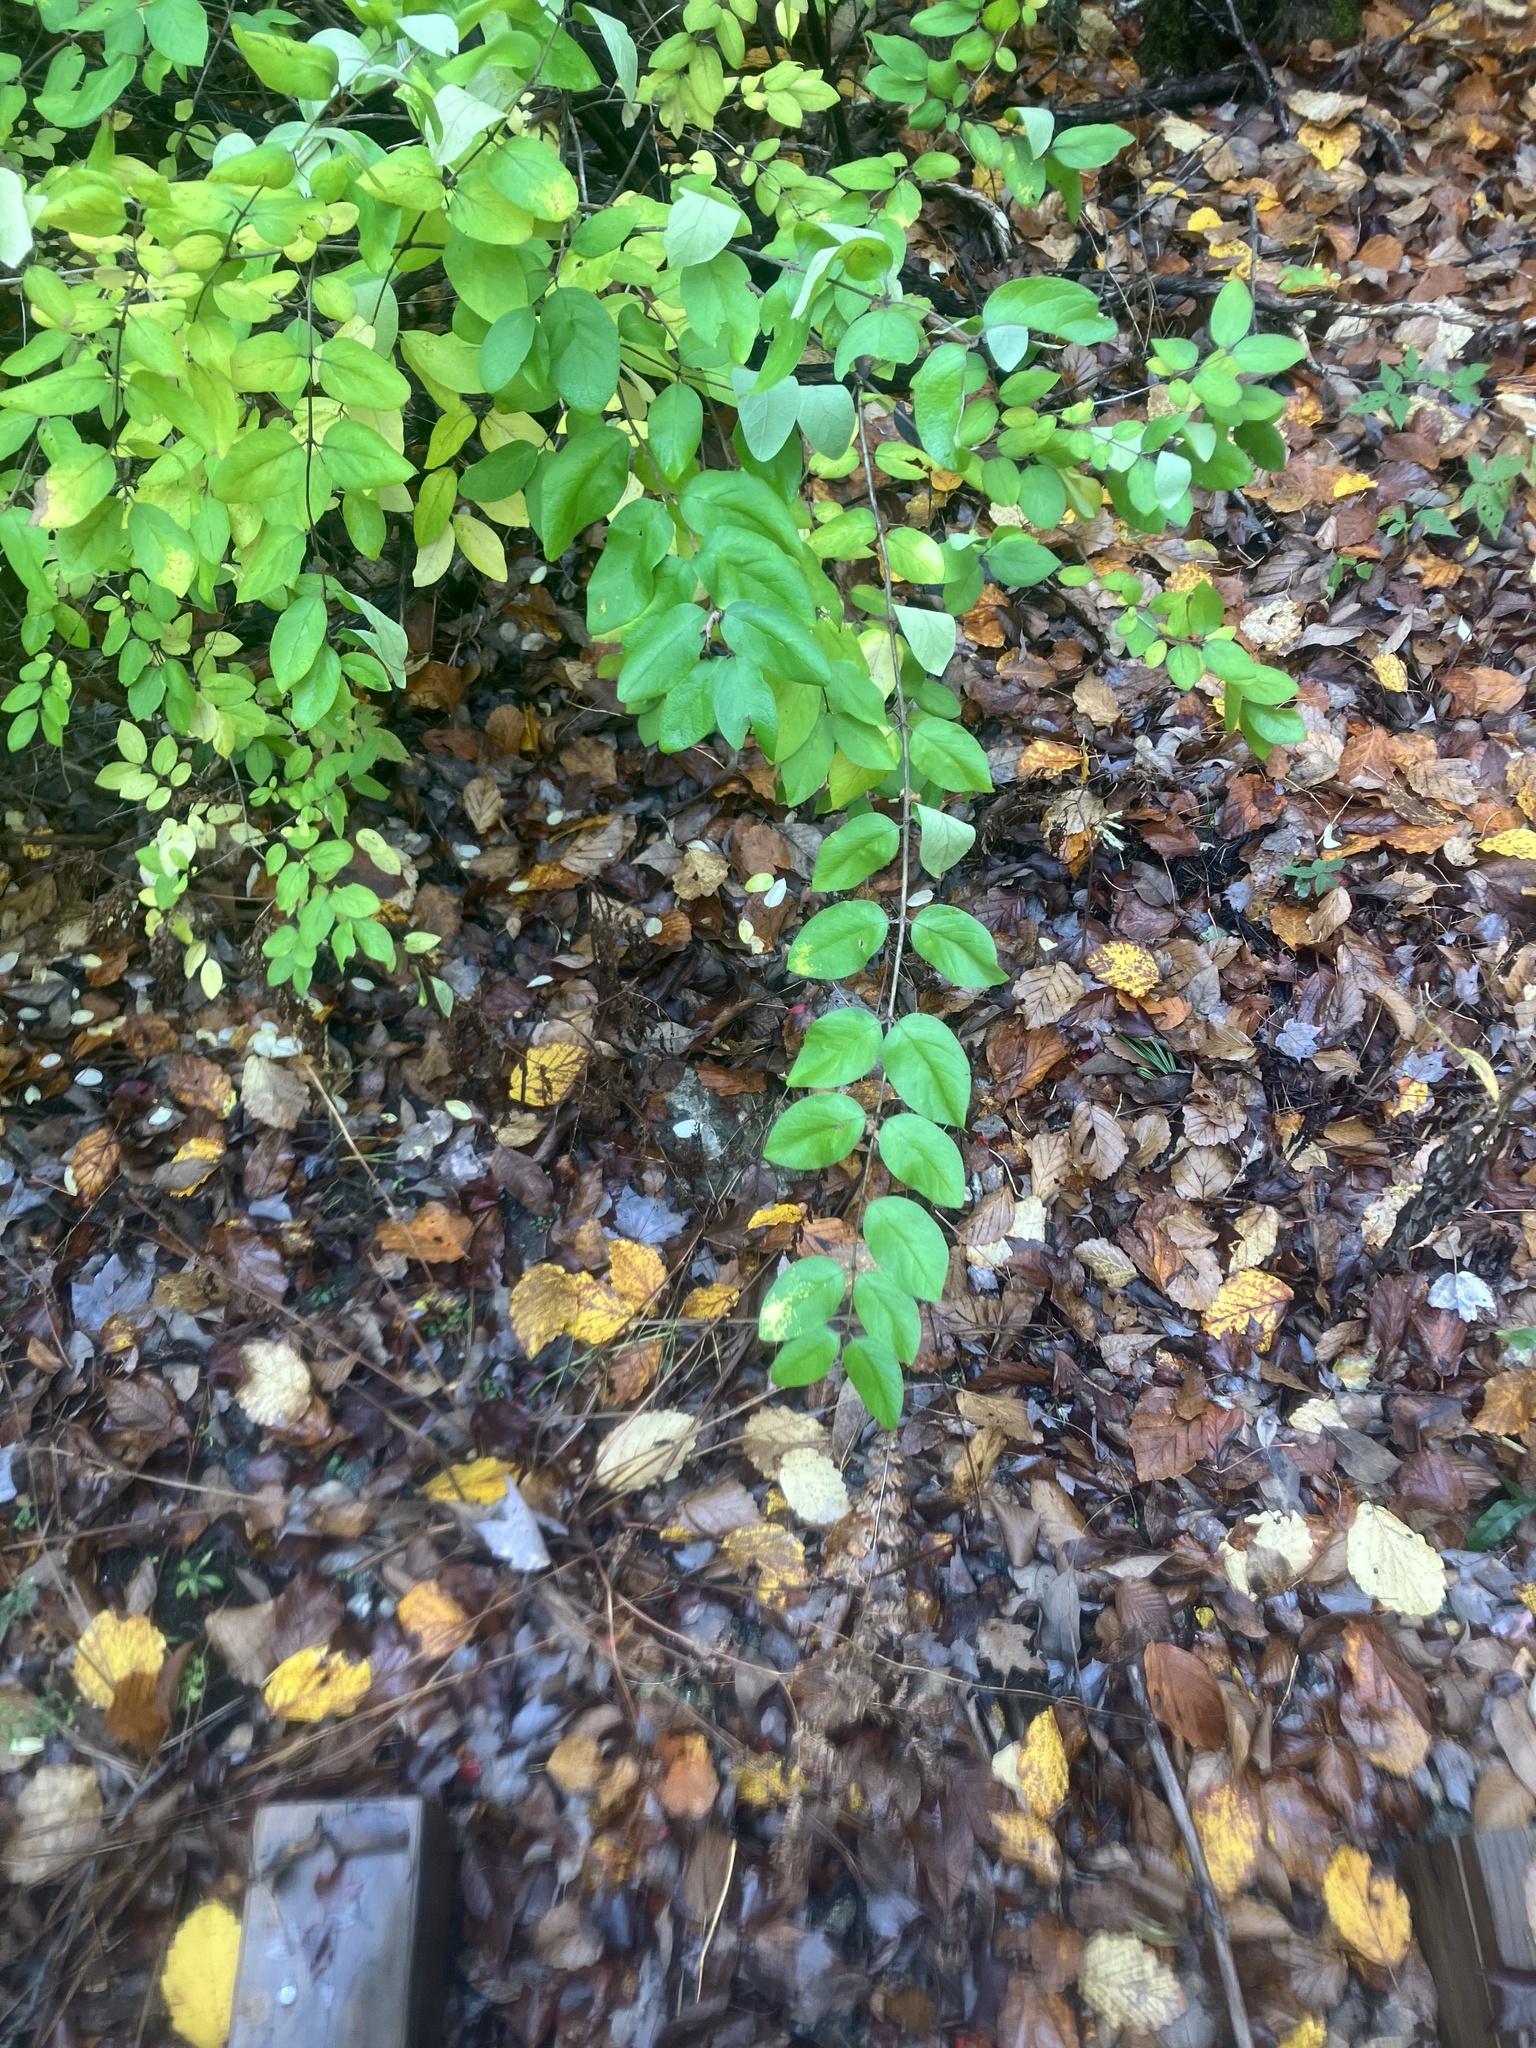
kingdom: Plantae
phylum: Tracheophyta
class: Magnoliopsida
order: Dipsacales
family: Caprifoliaceae
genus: Lonicera
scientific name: Lonicera morrowii
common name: Morrow's honeysuckle
